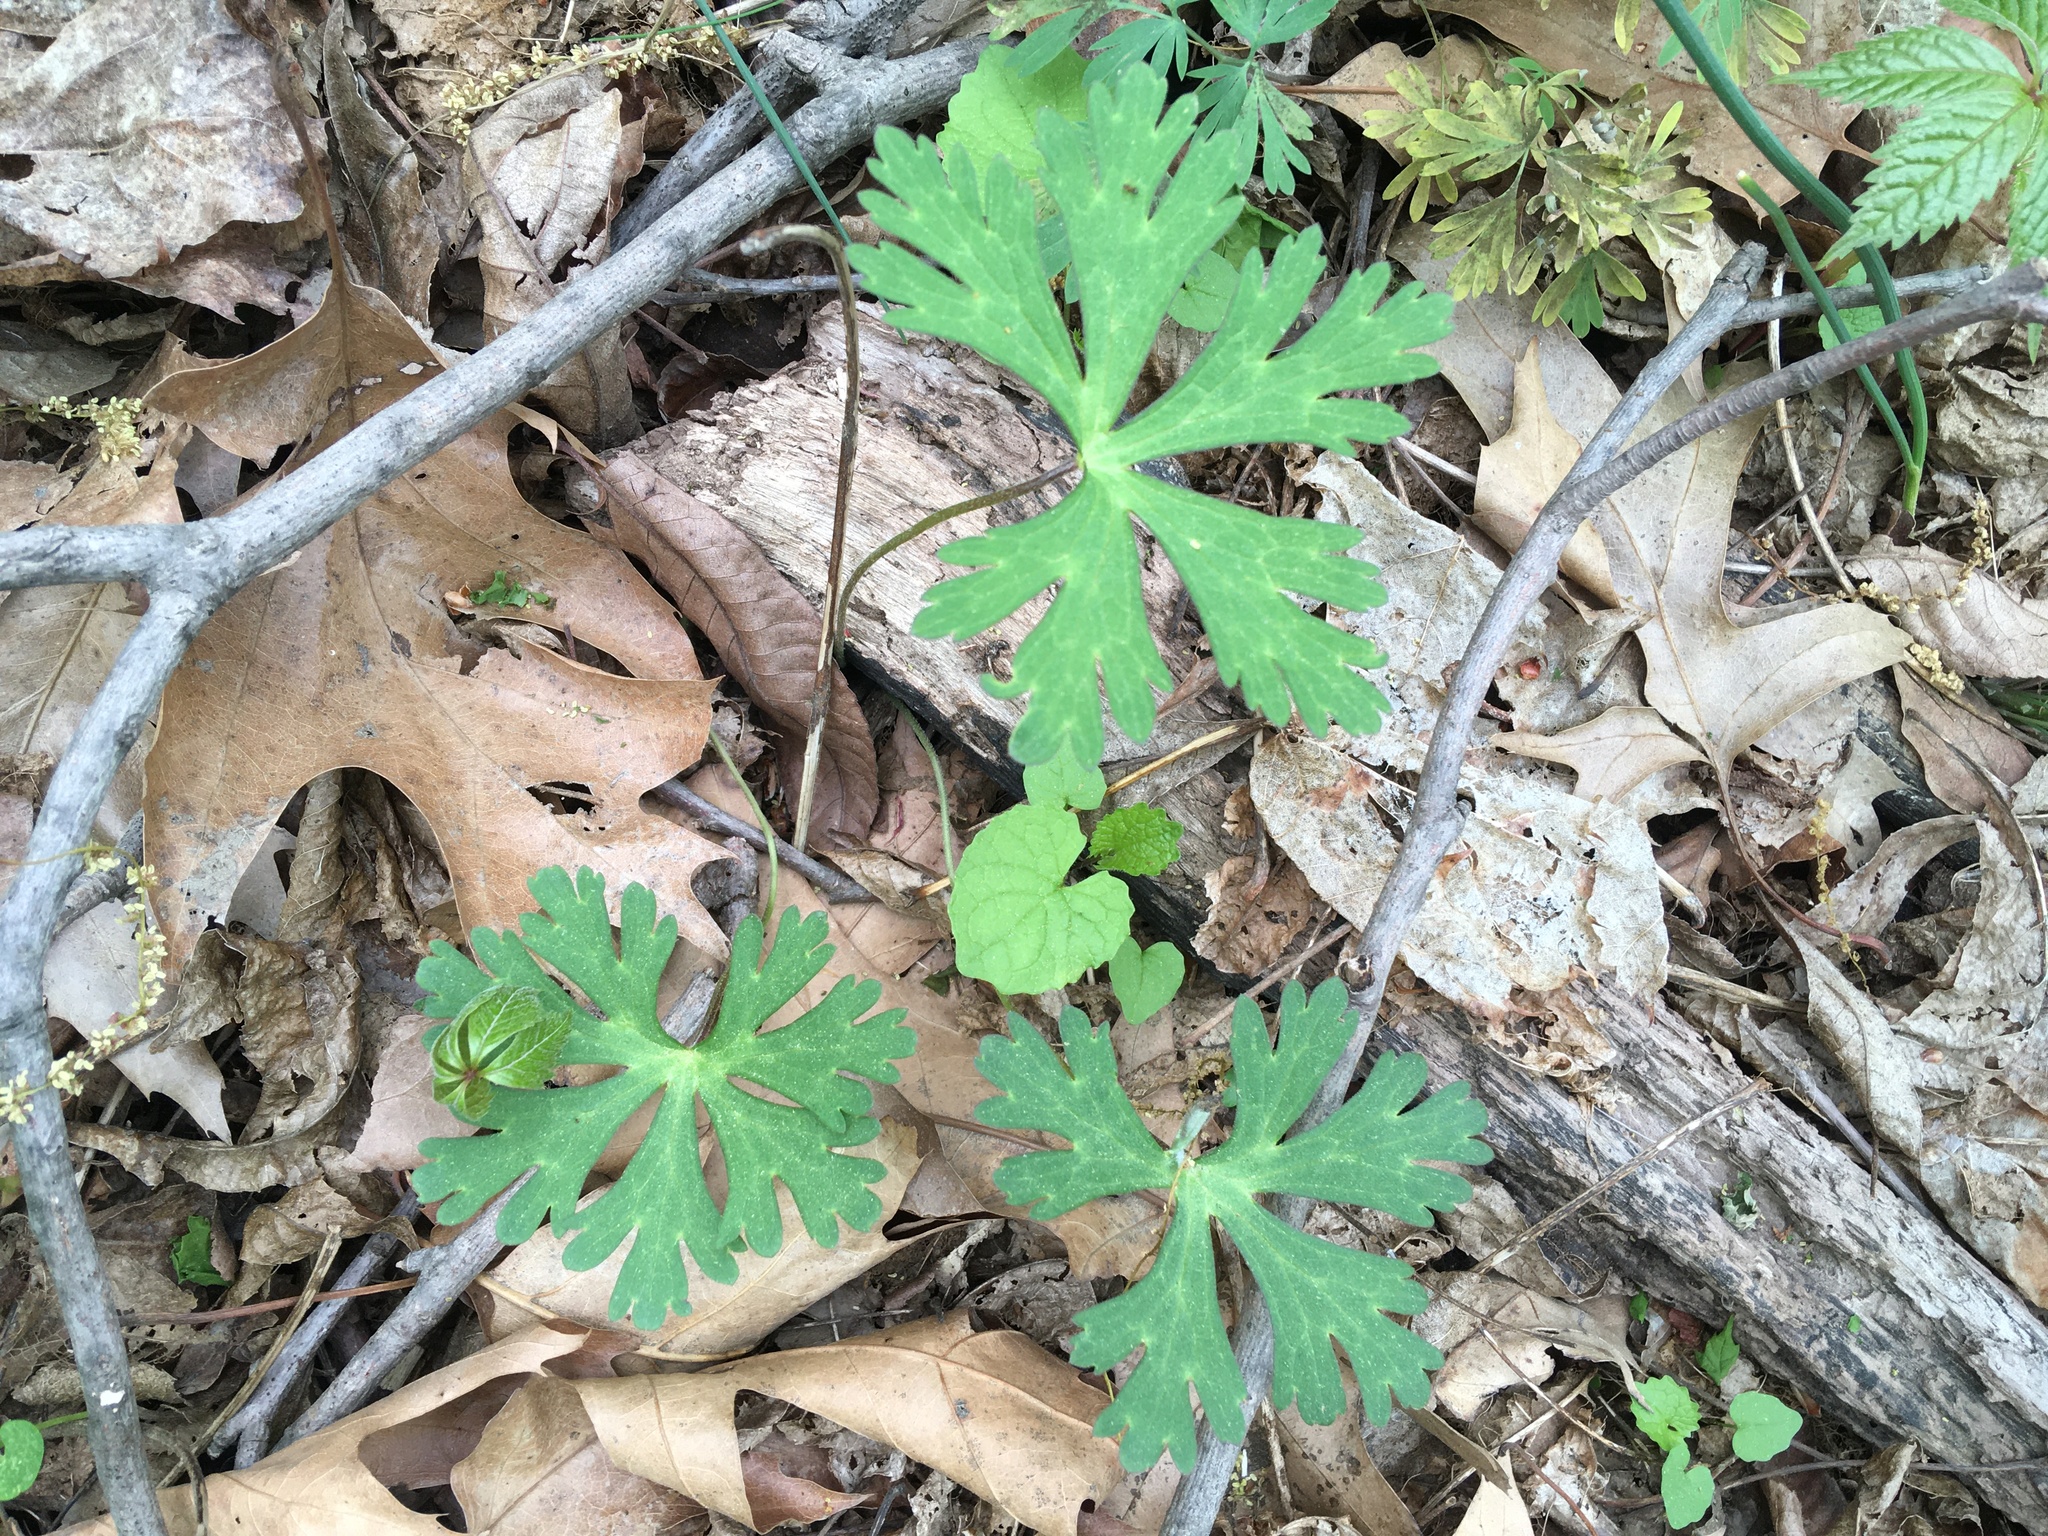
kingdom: Plantae
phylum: Tracheophyta
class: Magnoliopsida
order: Geraniales
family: Geraniaceae
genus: Geranium
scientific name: Geranium maculatum
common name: Spotted geranium
